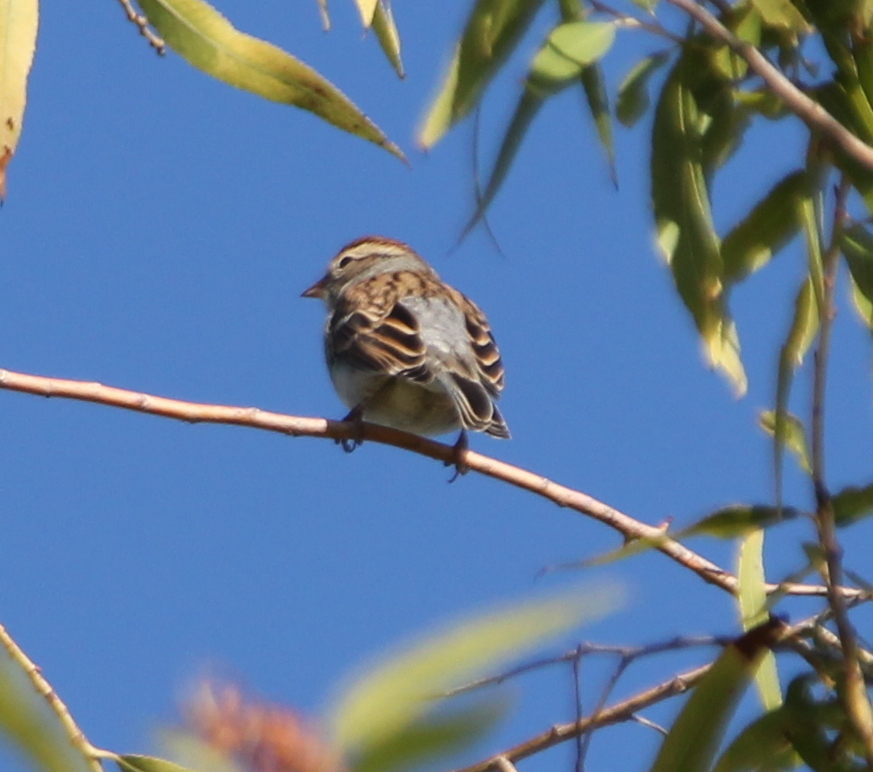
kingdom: Animalia
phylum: Chordata
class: Aves
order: Passeriformes
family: Passerellidae
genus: Spizella
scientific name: Spizella passerina
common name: Chipping sparrow
